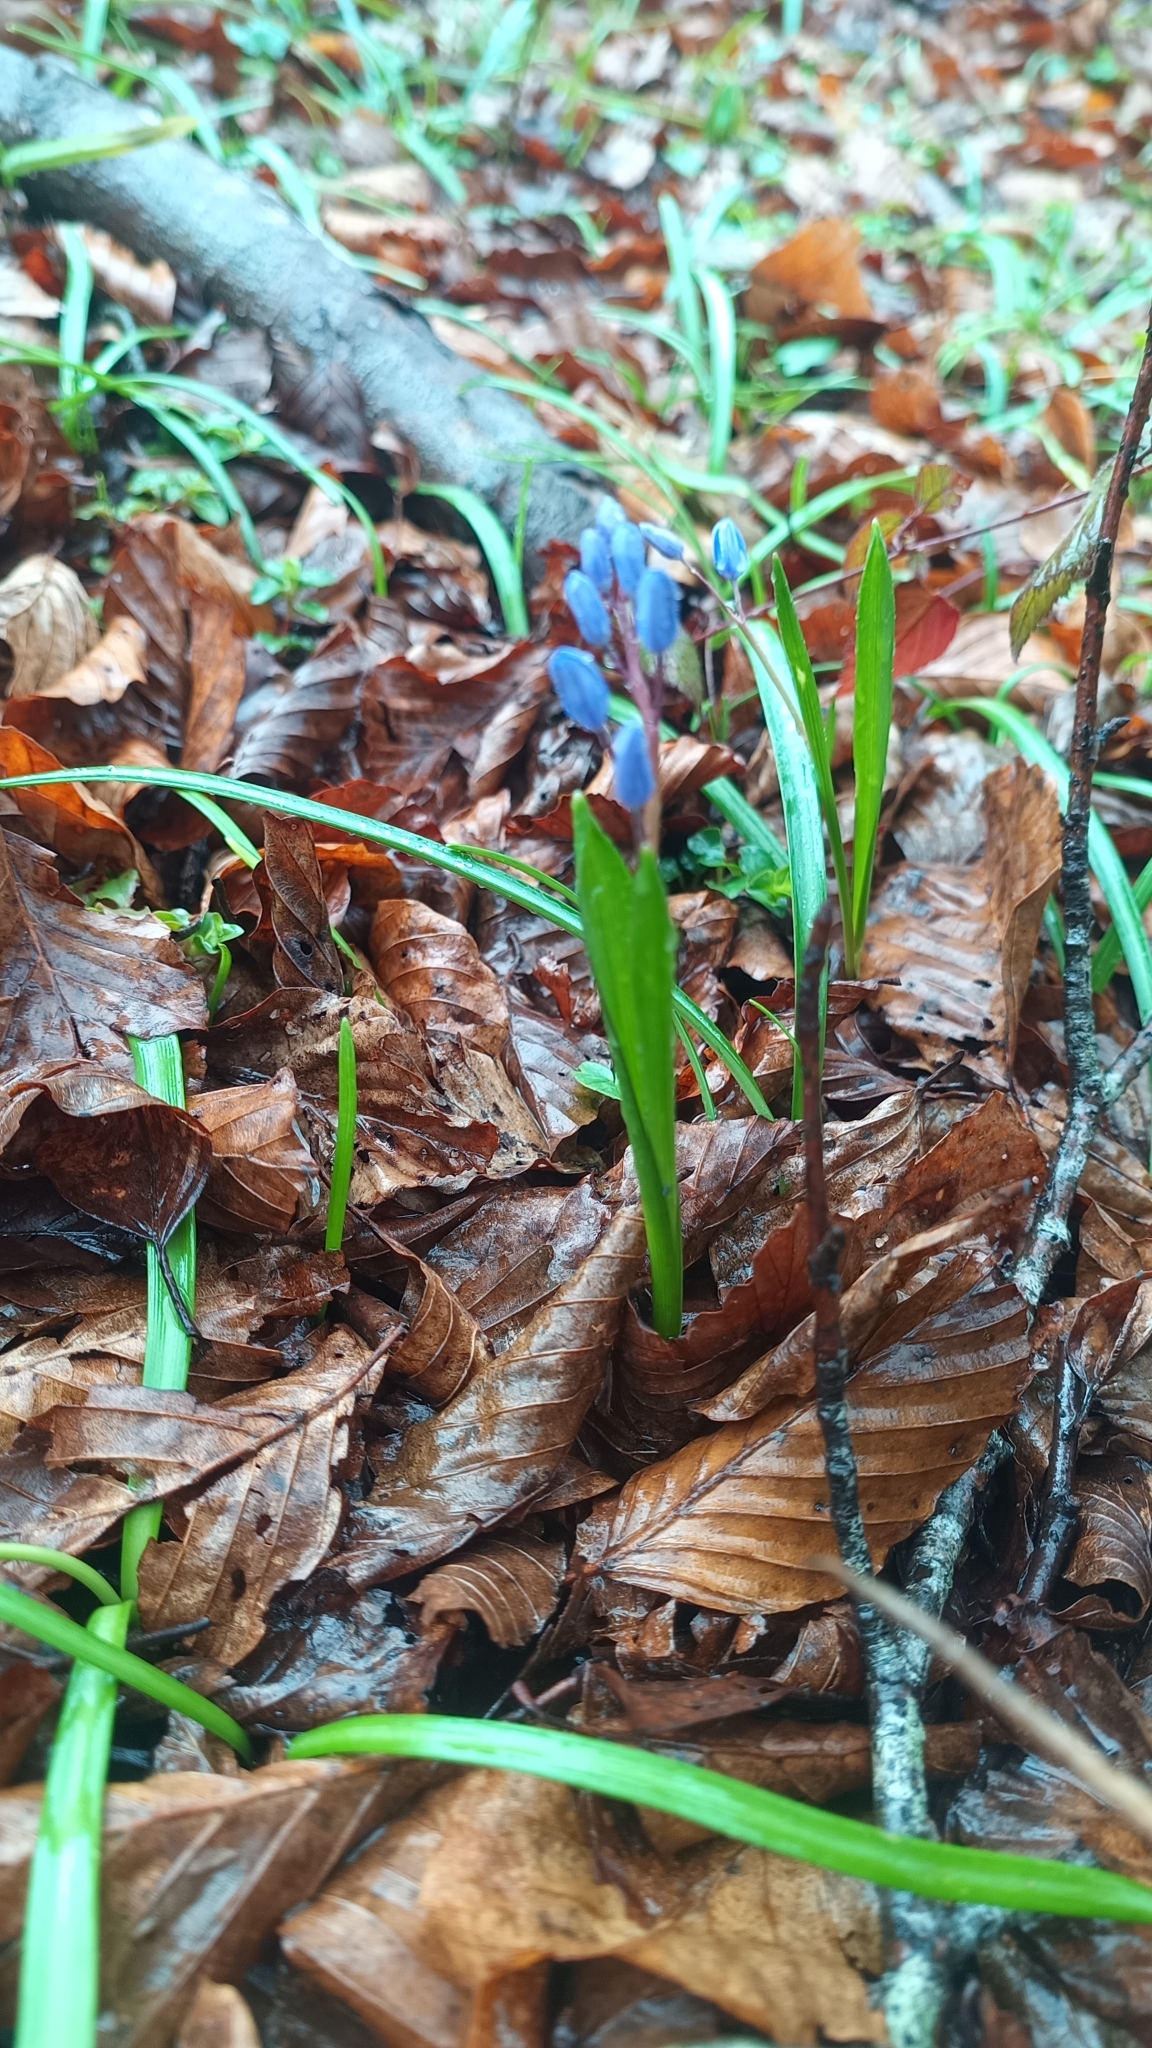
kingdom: Plantae
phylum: Tracheophyta
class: Liliopsida
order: Asparagales
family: Asparagaceae
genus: Scilla
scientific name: Scilla bifolia
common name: Alpine squill
